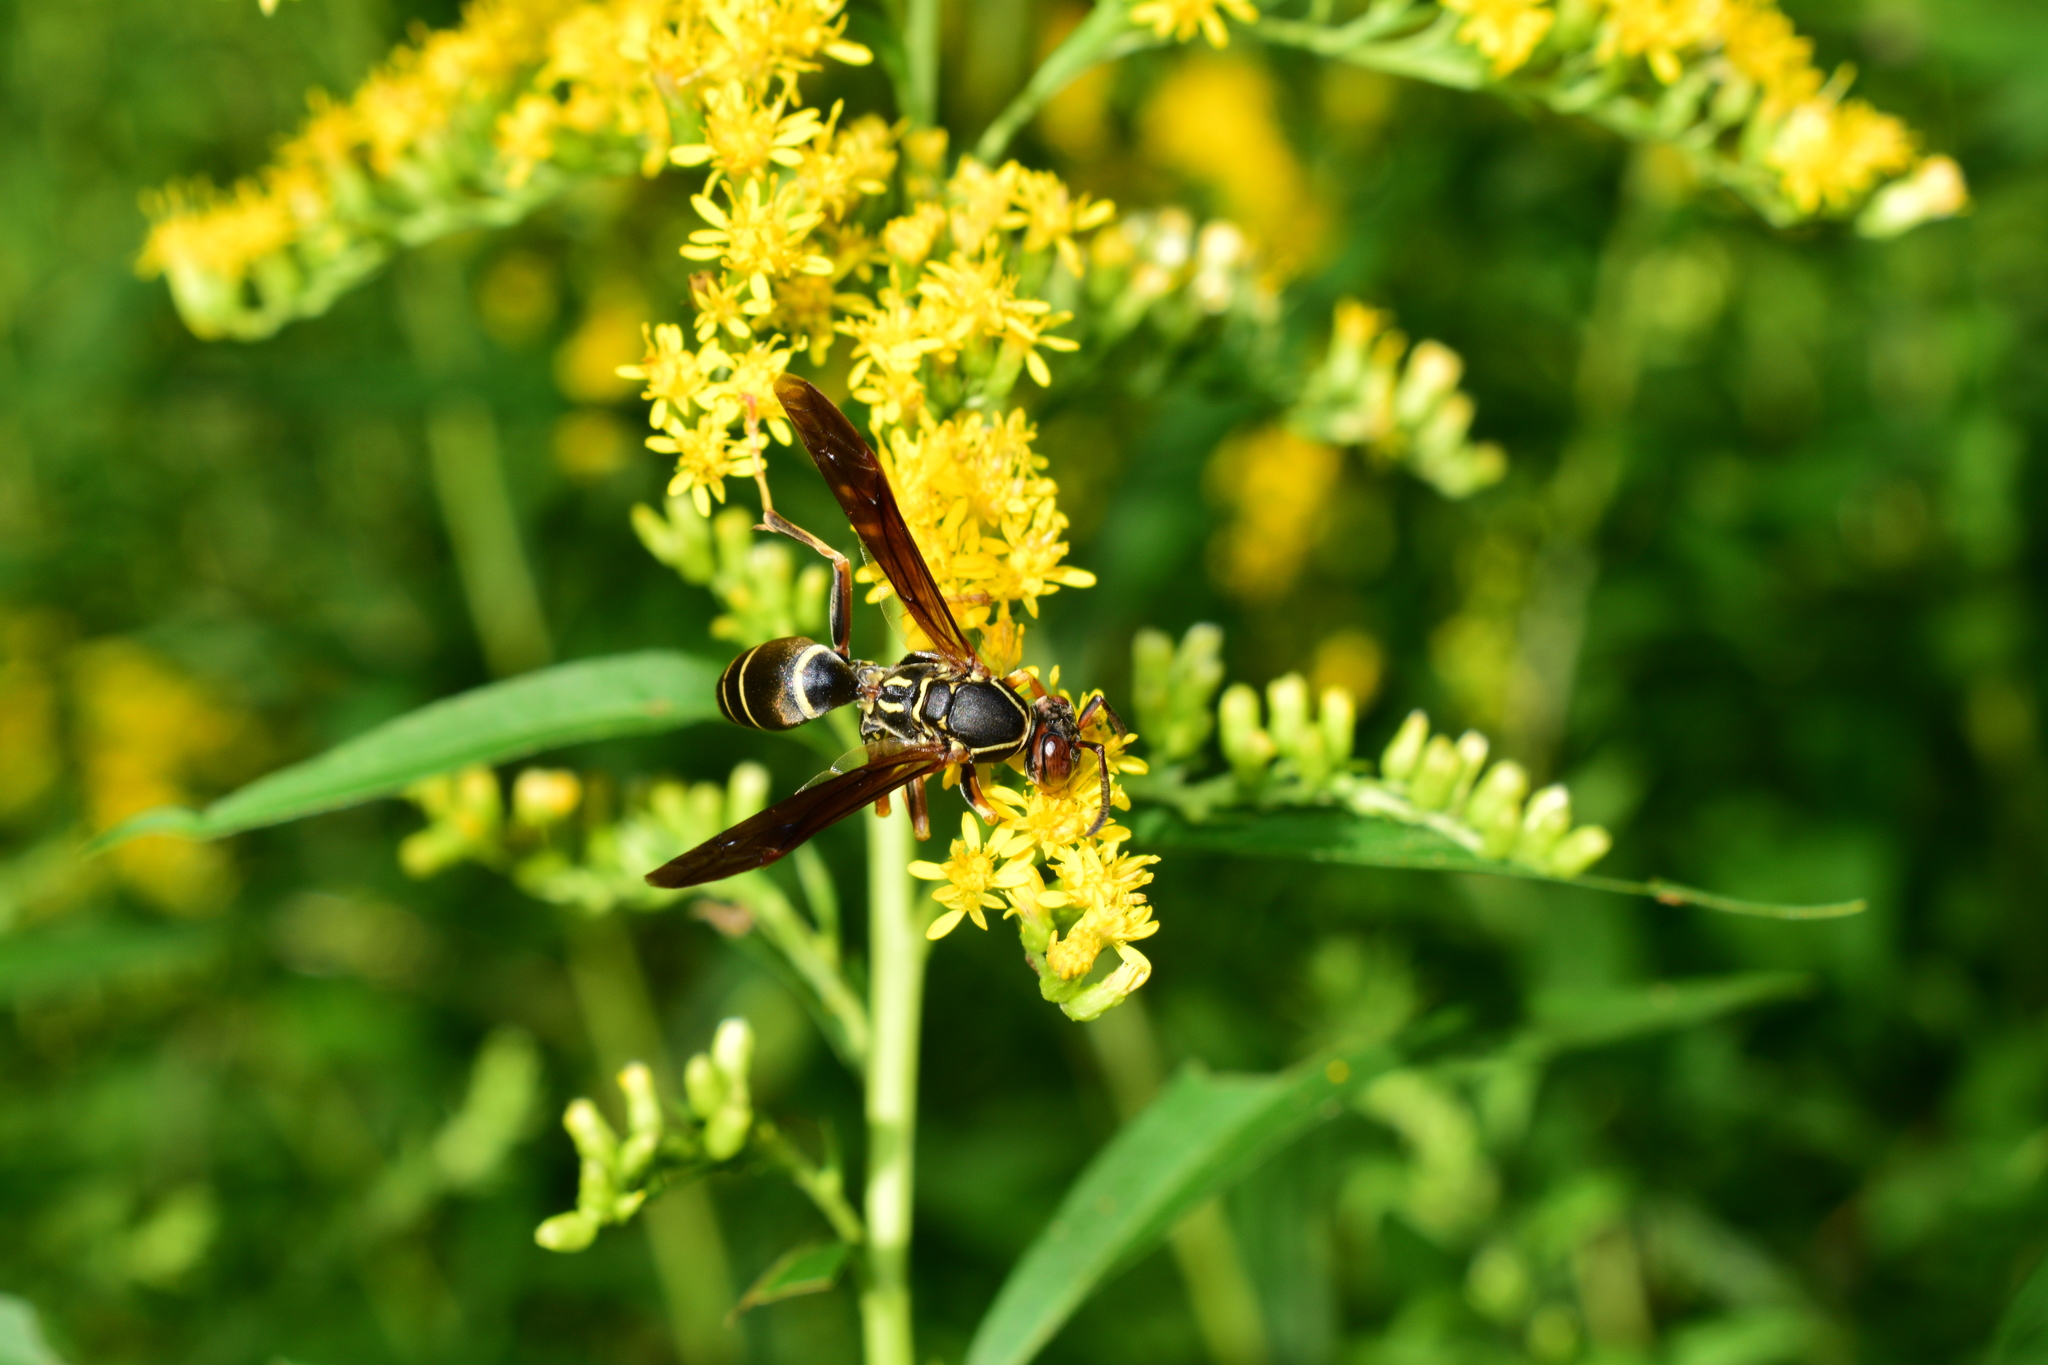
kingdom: Animalia
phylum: Arthropoda
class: Insecta
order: Hymenoptera
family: Eumenidae
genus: Polistes
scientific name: Polistes fuscatus
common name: Dark paper wasp
